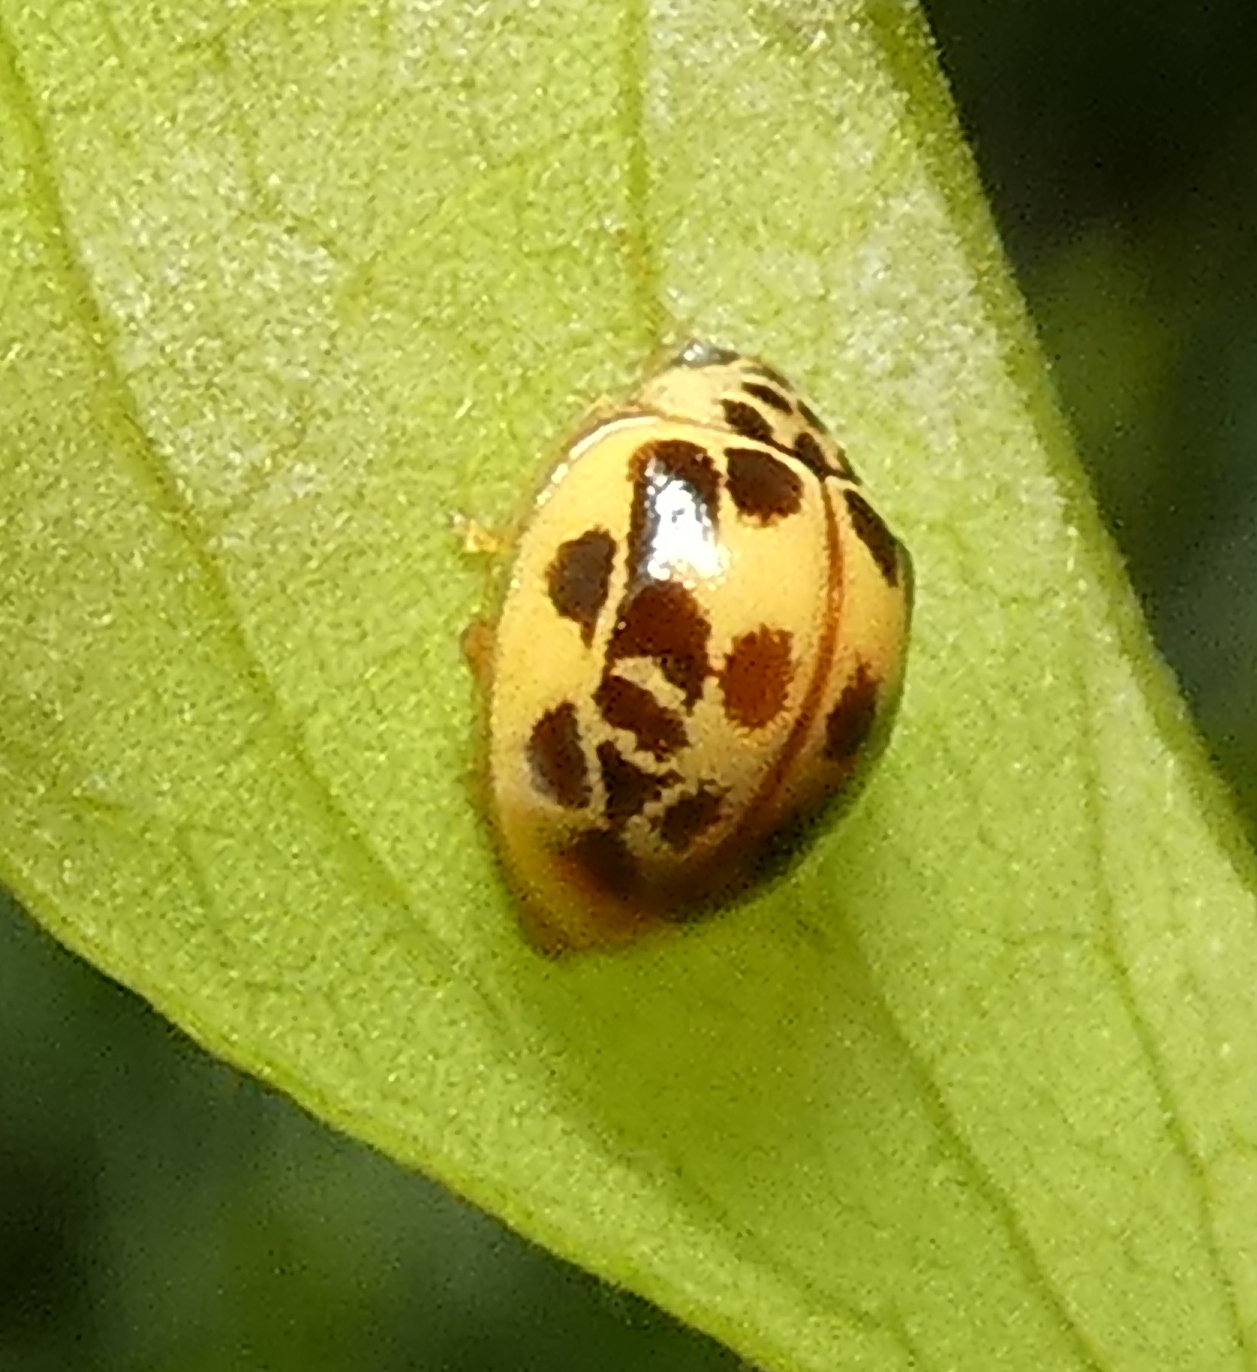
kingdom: Animalia
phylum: Arthropoda
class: Insecta
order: Coleoptera
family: Coccinellidae
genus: Psyllobora
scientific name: Psyllobora confluens
